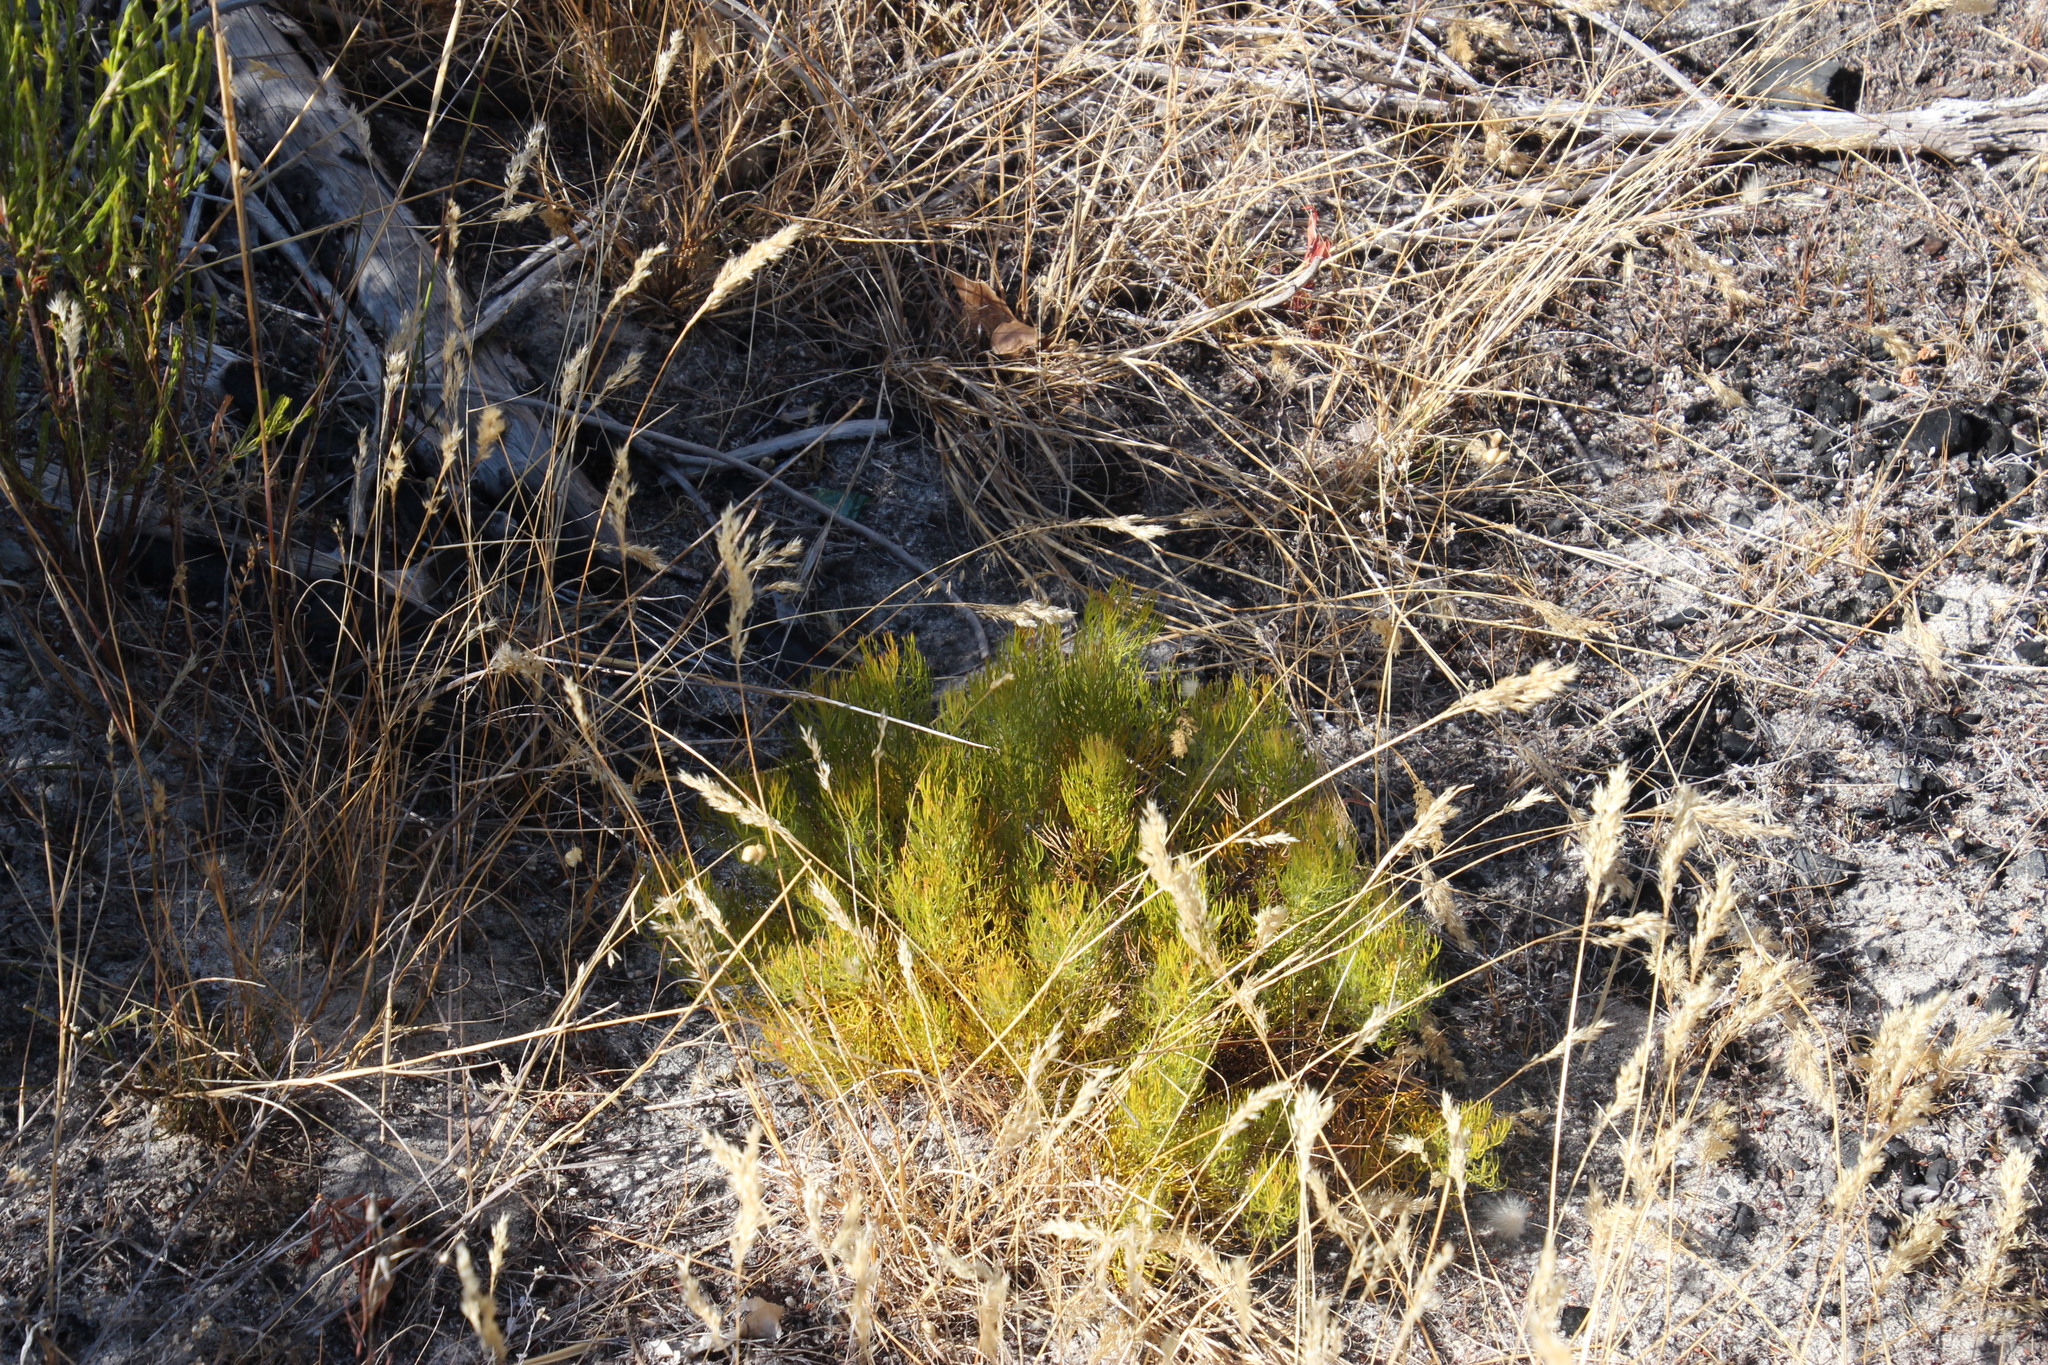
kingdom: Plantae
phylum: Tracheophyta
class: Magnoliopsida
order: Proteales
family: Proteaceae
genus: Serruria
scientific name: Serruria cyanoides
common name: Wynberg spiderhead
